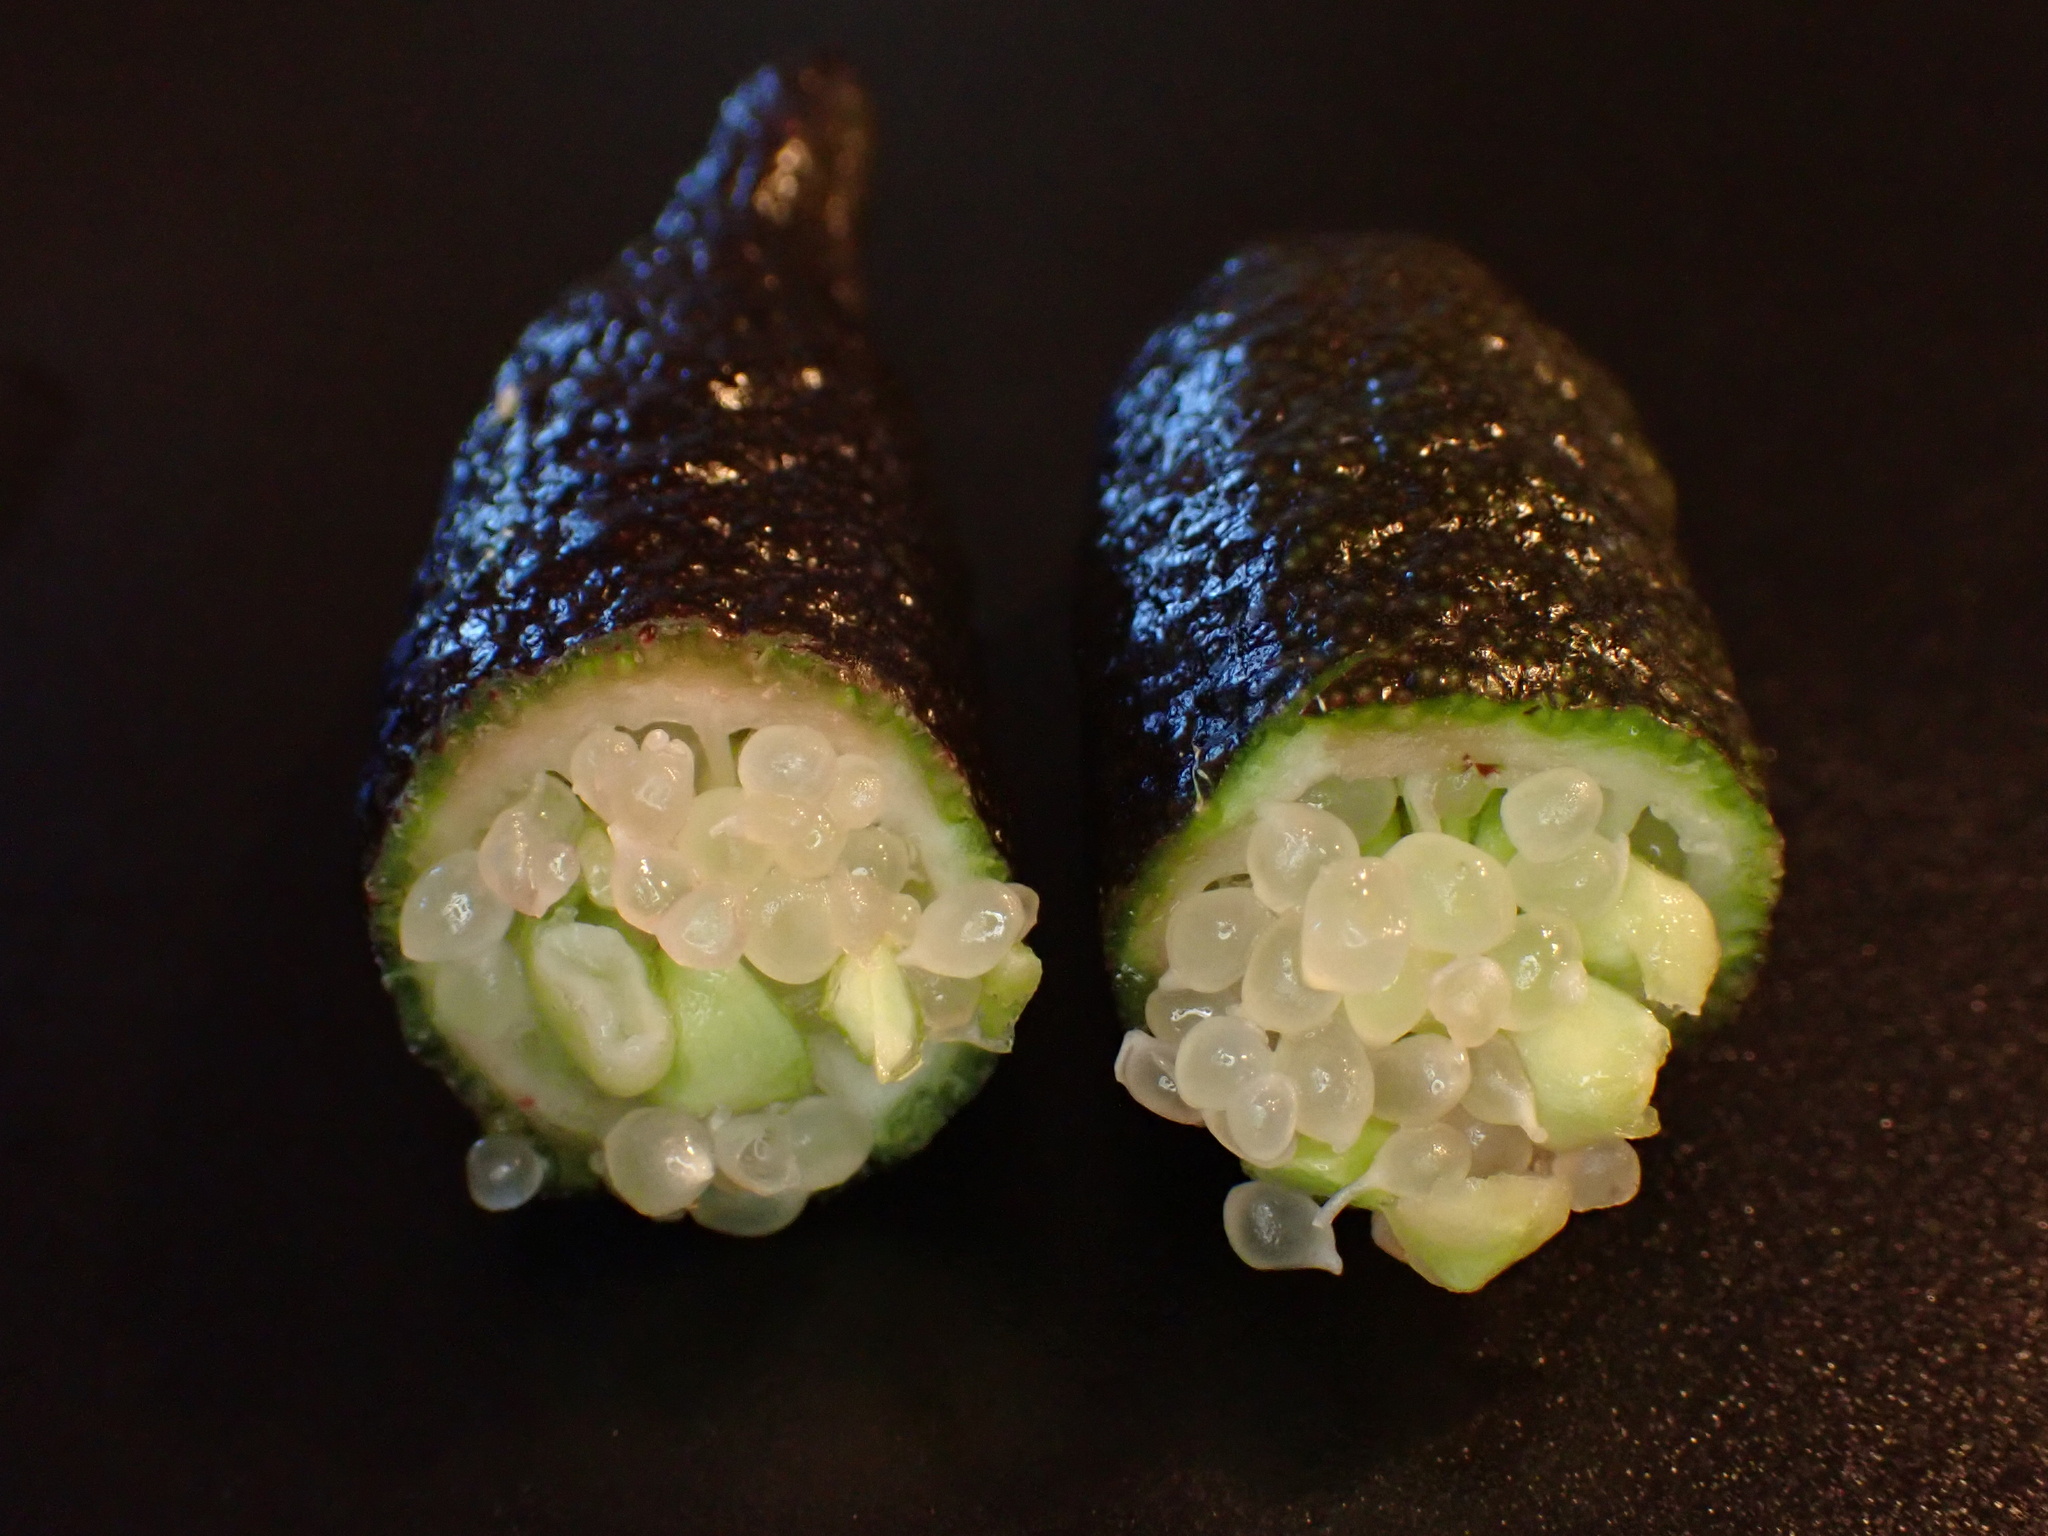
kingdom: Plantae
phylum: Tracheophyta
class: Magnoliopsida
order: Sapindales
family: Rutaceae
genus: Microcitrus
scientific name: Microcitrus australasica
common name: Australian finger-lime
